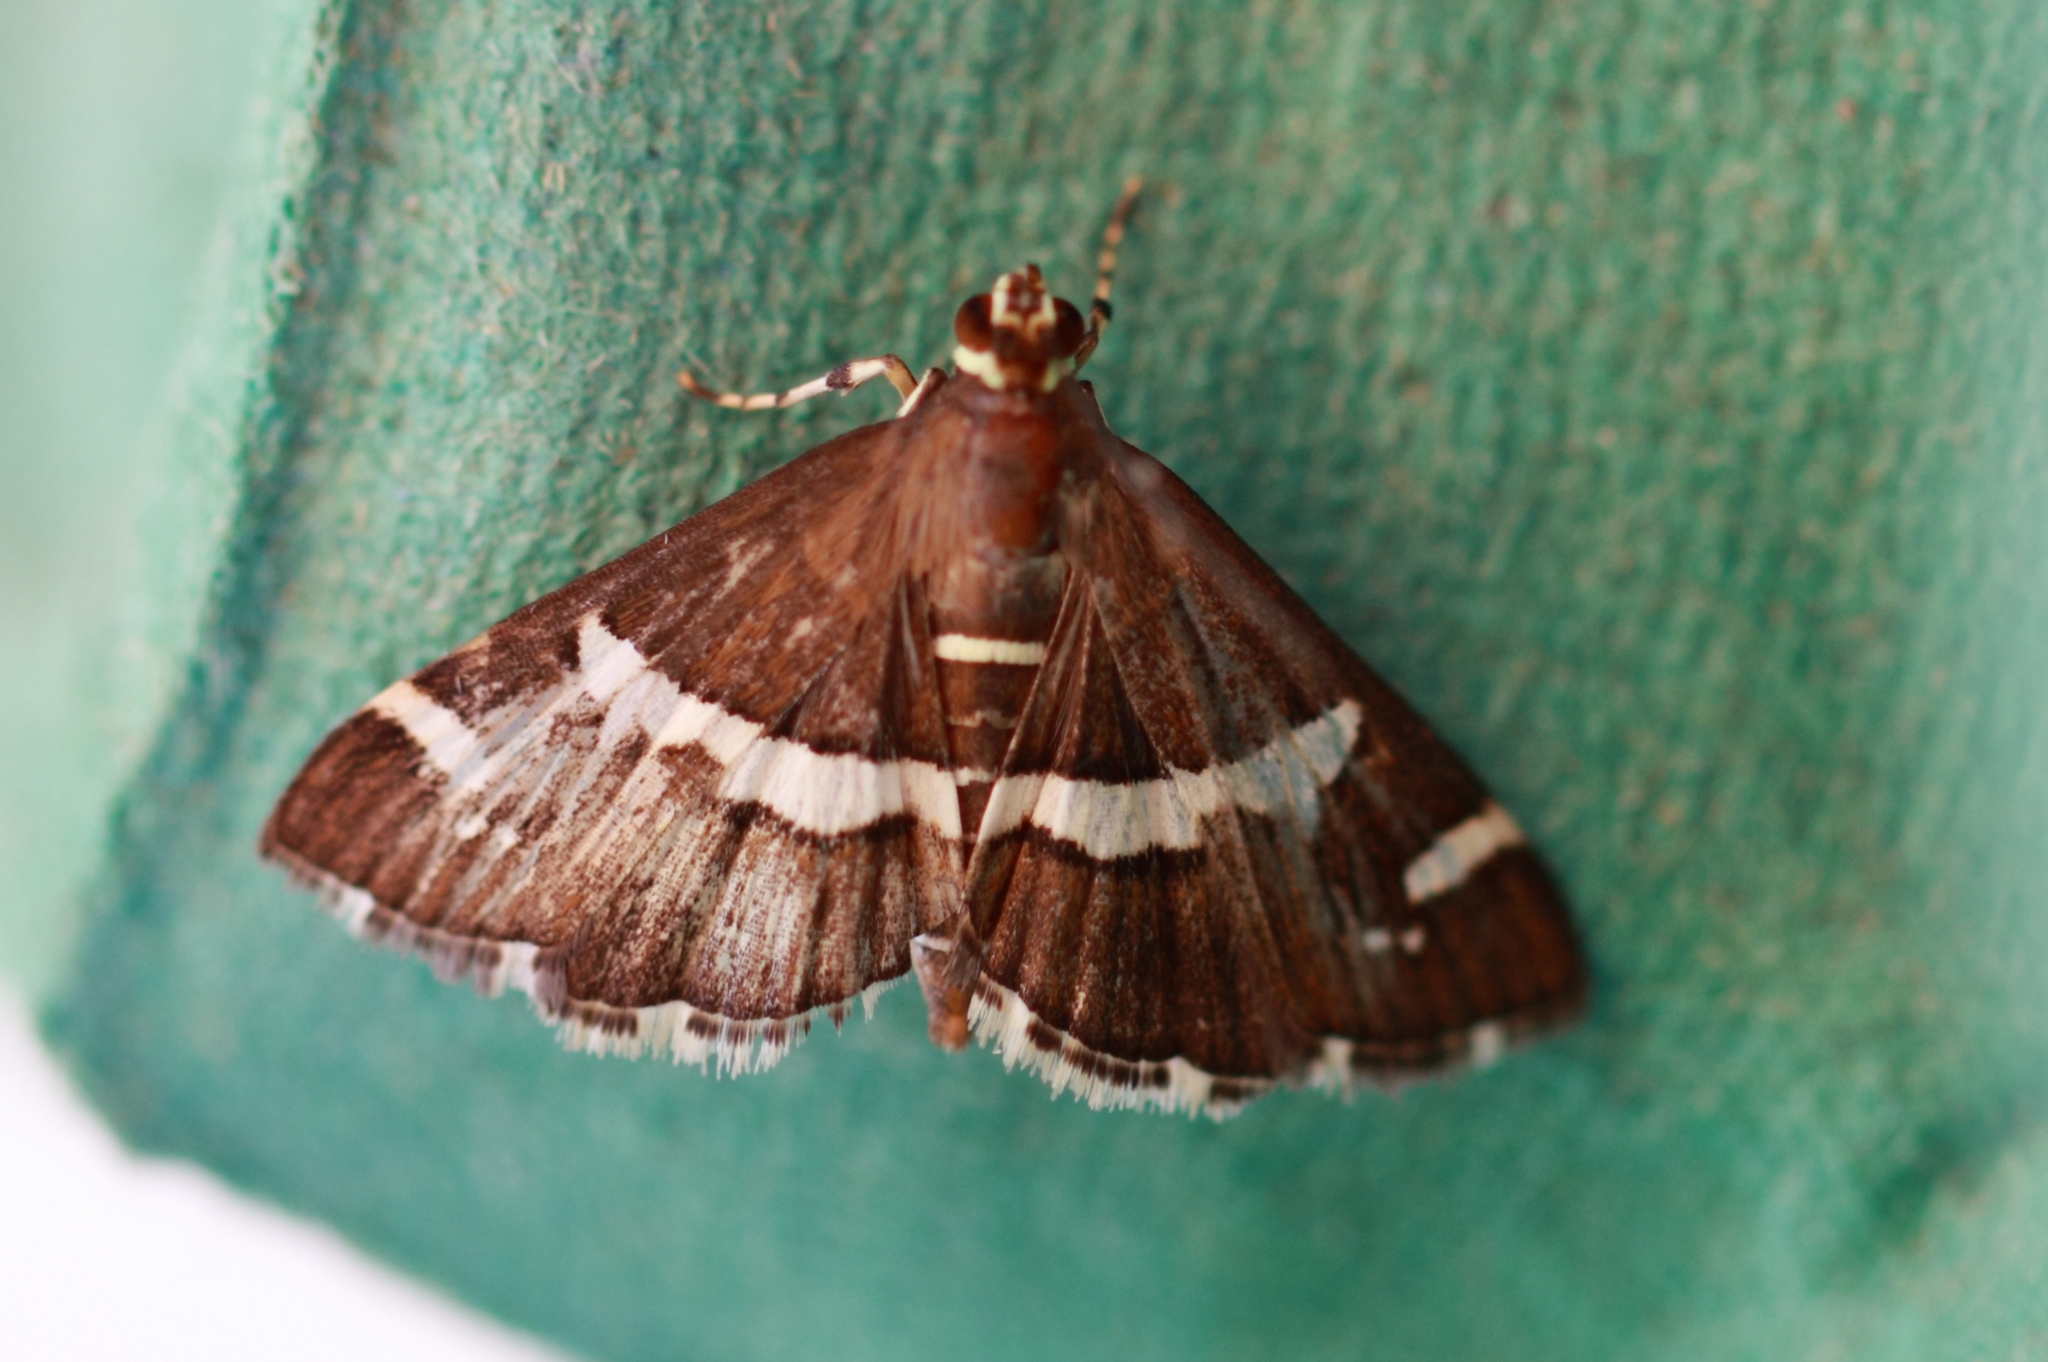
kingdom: Animalia
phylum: Arthropoda
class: Insecta
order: Lepidoptera
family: Crambidae
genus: Spoladea
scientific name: Spoladea recurvalis
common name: Beet webworm moth
